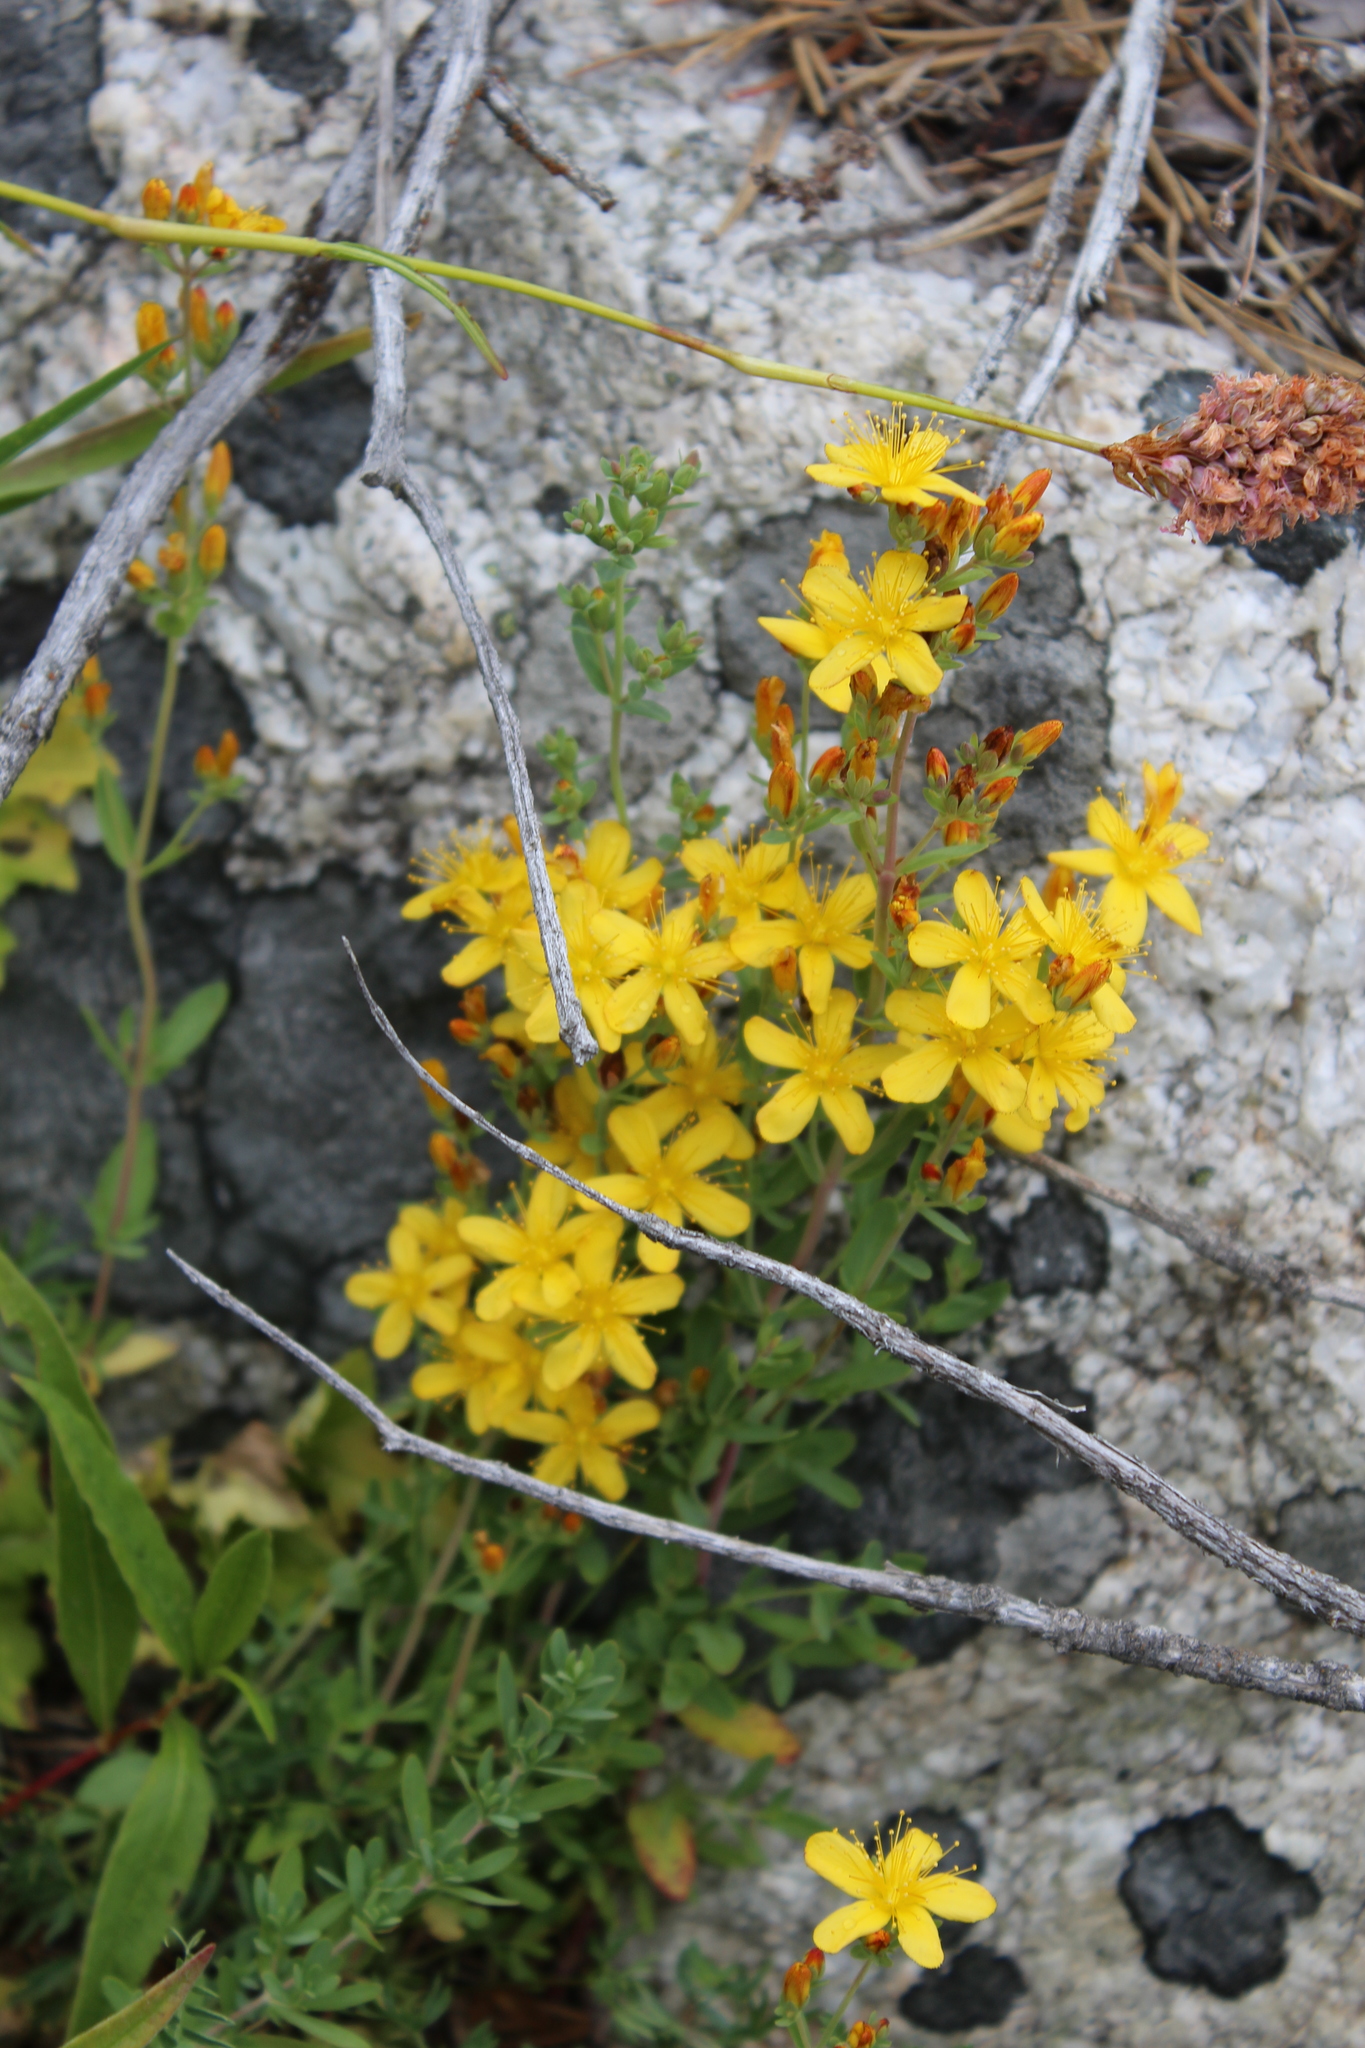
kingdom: Plantae
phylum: Tracheophyta
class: Magnoliopsida
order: Malpighiales
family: Hypericaceae
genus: Hypericum
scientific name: Hypericum linarioides
